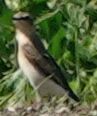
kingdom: Animalia
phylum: Chordata
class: Aves
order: Passeriformes
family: Muscicapidae
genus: Oenanthe
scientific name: Oenanthe oenanthe
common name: Northern wheatear
